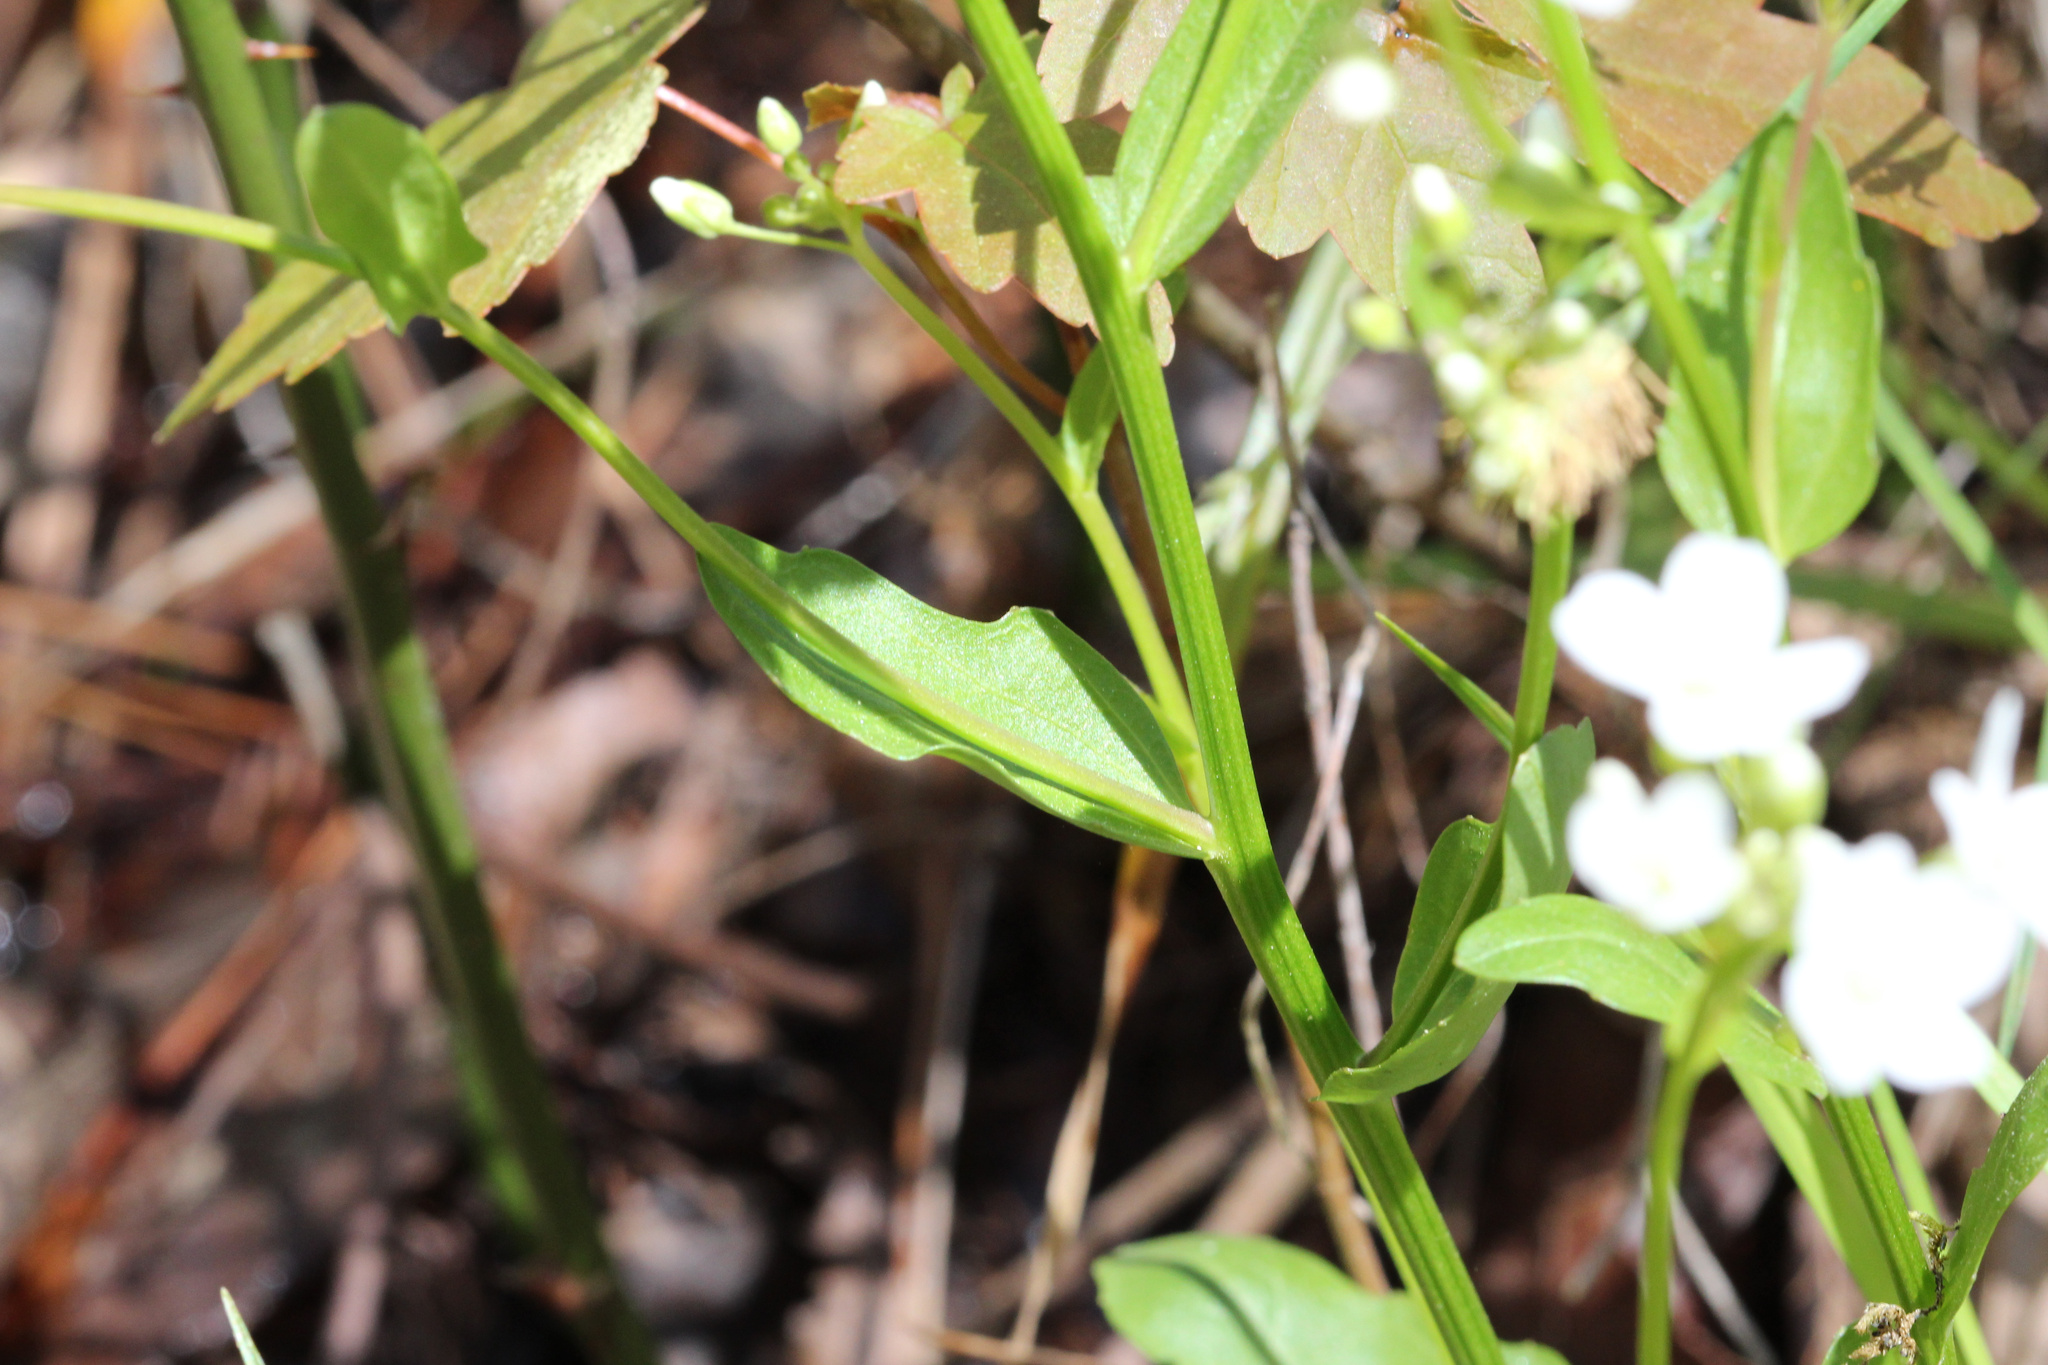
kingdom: Plantae
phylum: Tracheophyta
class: Magnoliopsida
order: Brassicales
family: Brassicaceae
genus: Cardamine
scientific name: Cardamine bulbosa
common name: Spring cress
